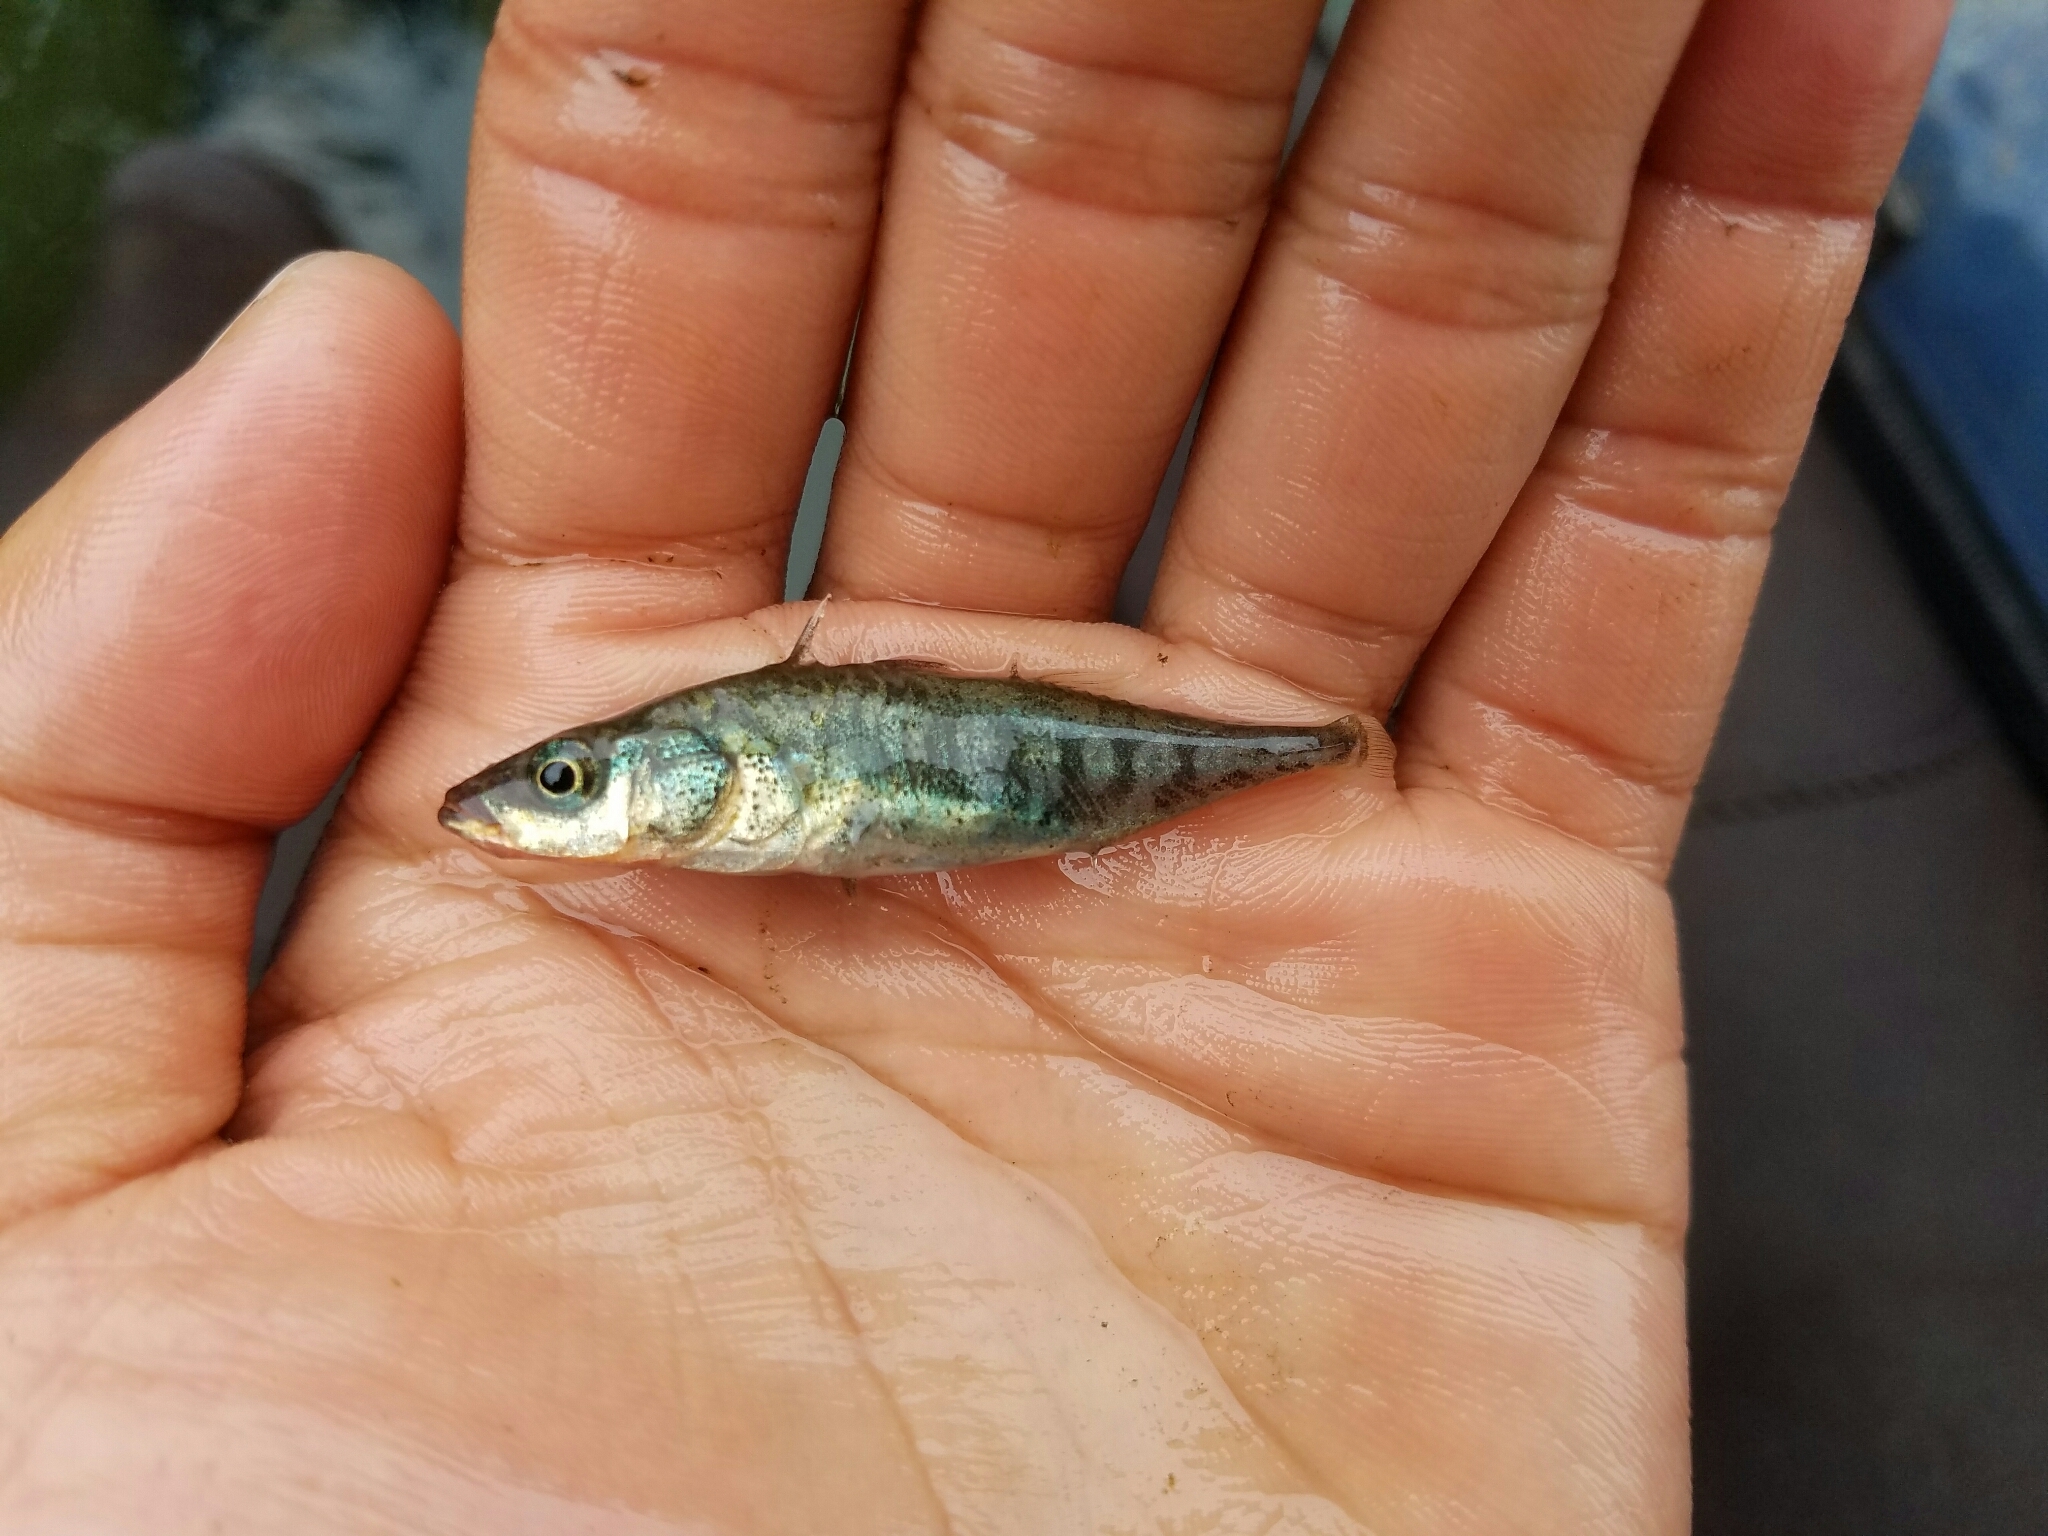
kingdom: Animalia
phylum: Chordata
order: Gasterosteiformes
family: Gasterosteidae
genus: Gasterosteus
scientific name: Gasterosteus aculeatus
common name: Three-spined stickleback
